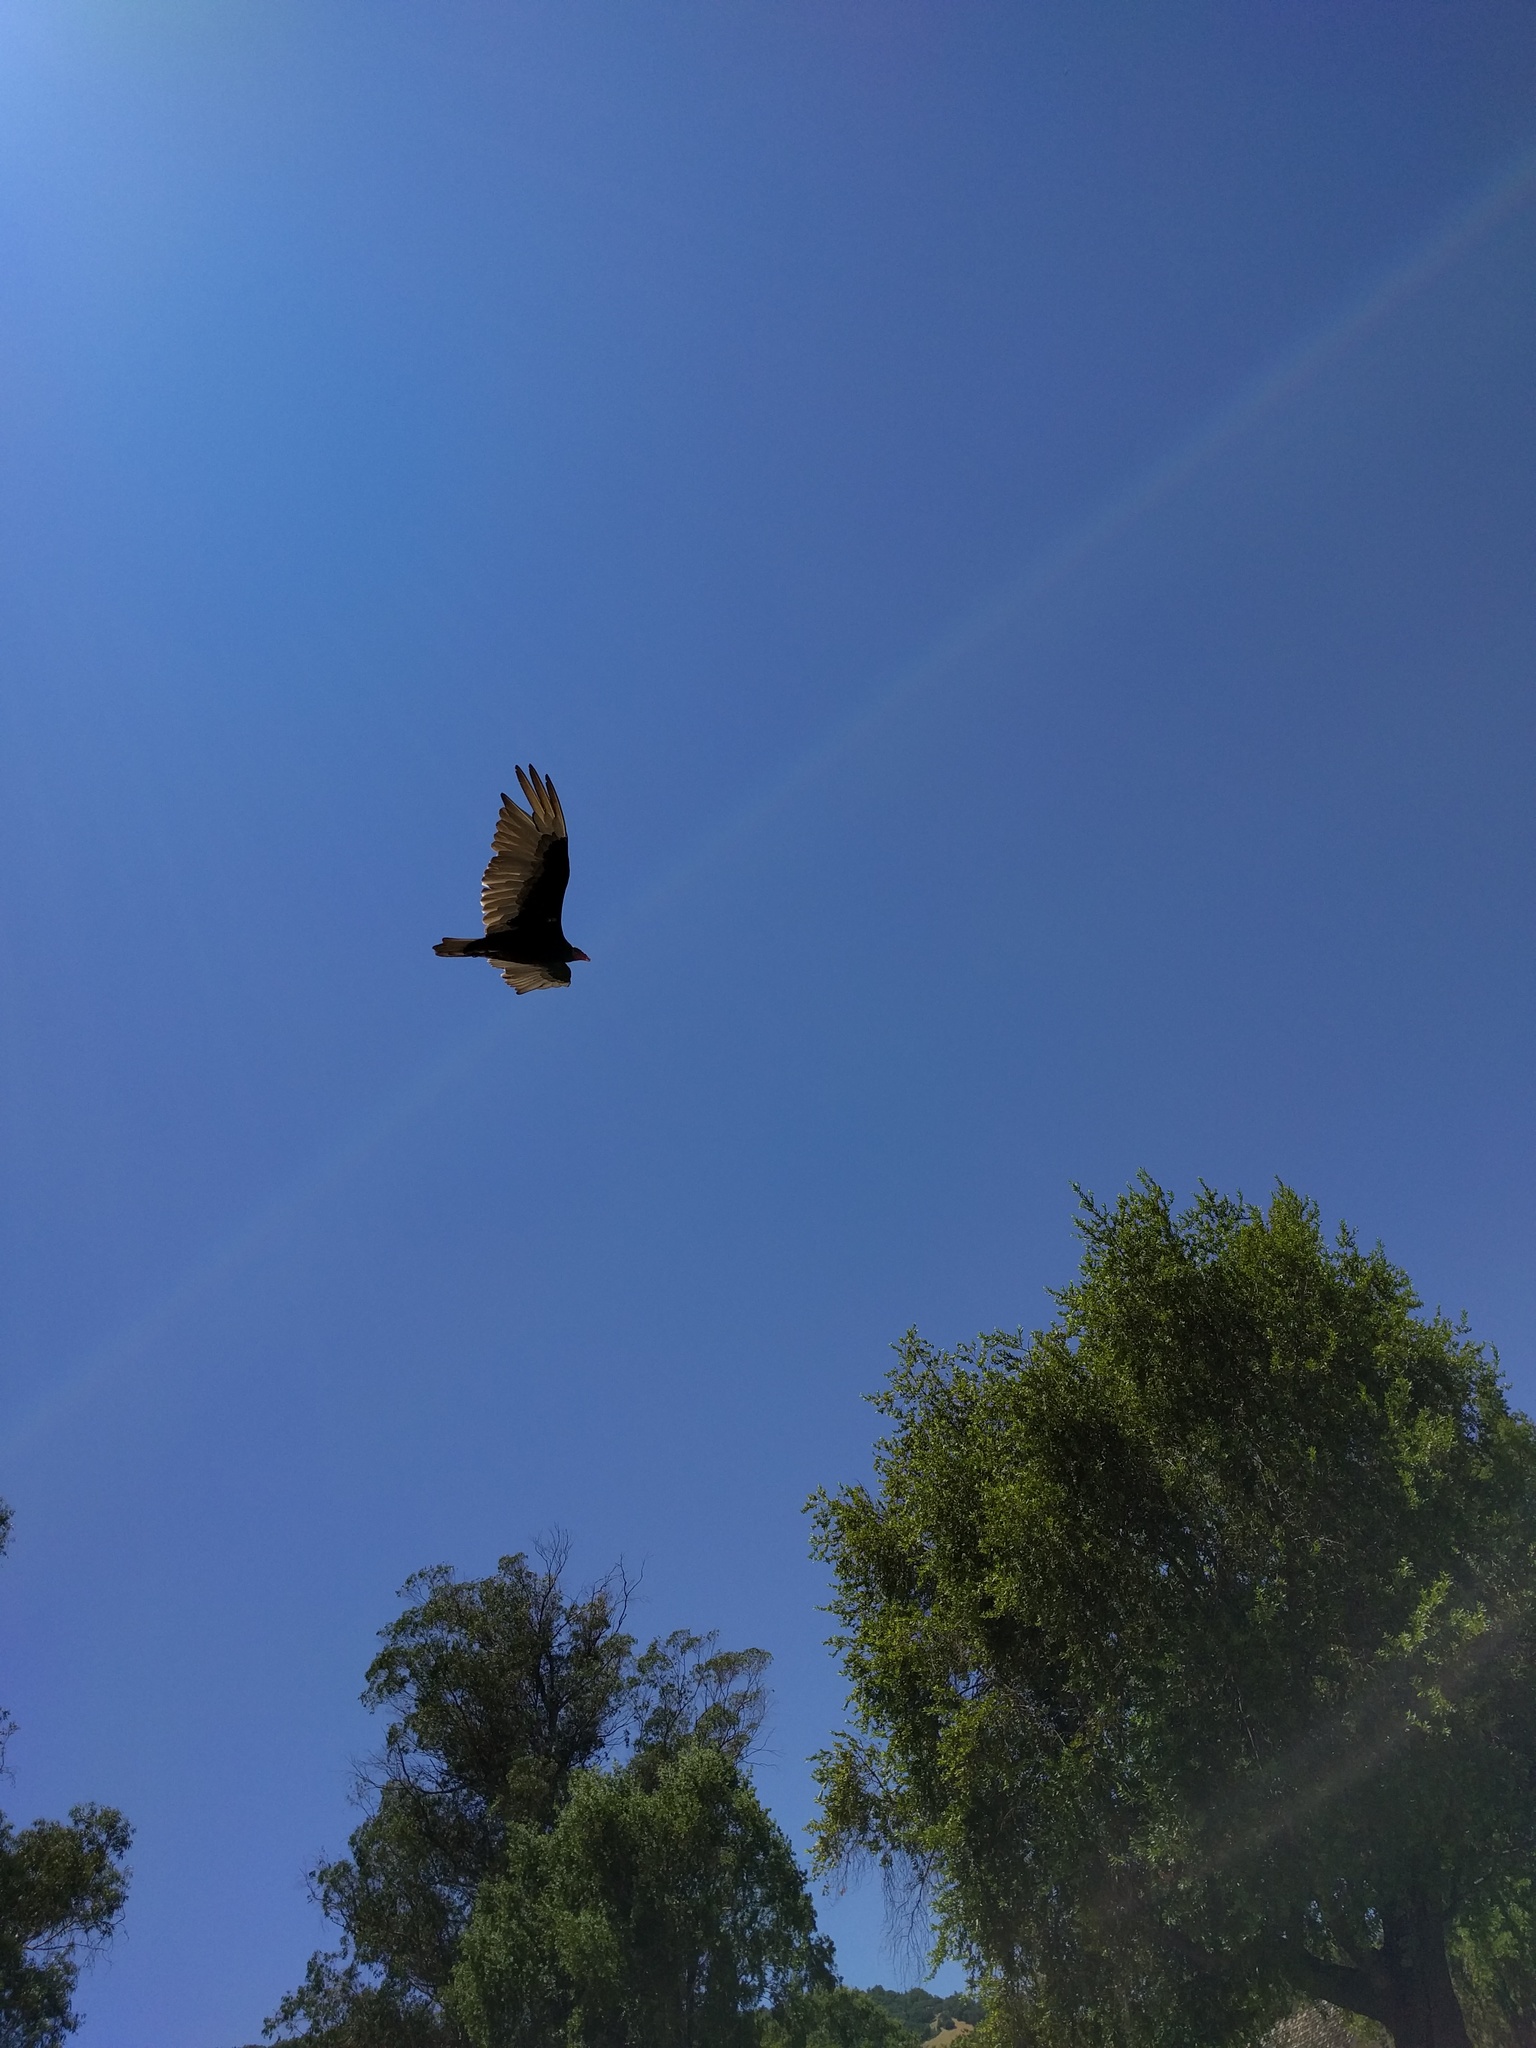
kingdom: Animalia
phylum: Chordata
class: Aves
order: Accipitriformes
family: Cathartidae
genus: Cathartes
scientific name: Cathartes aura
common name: Turkey vulture
